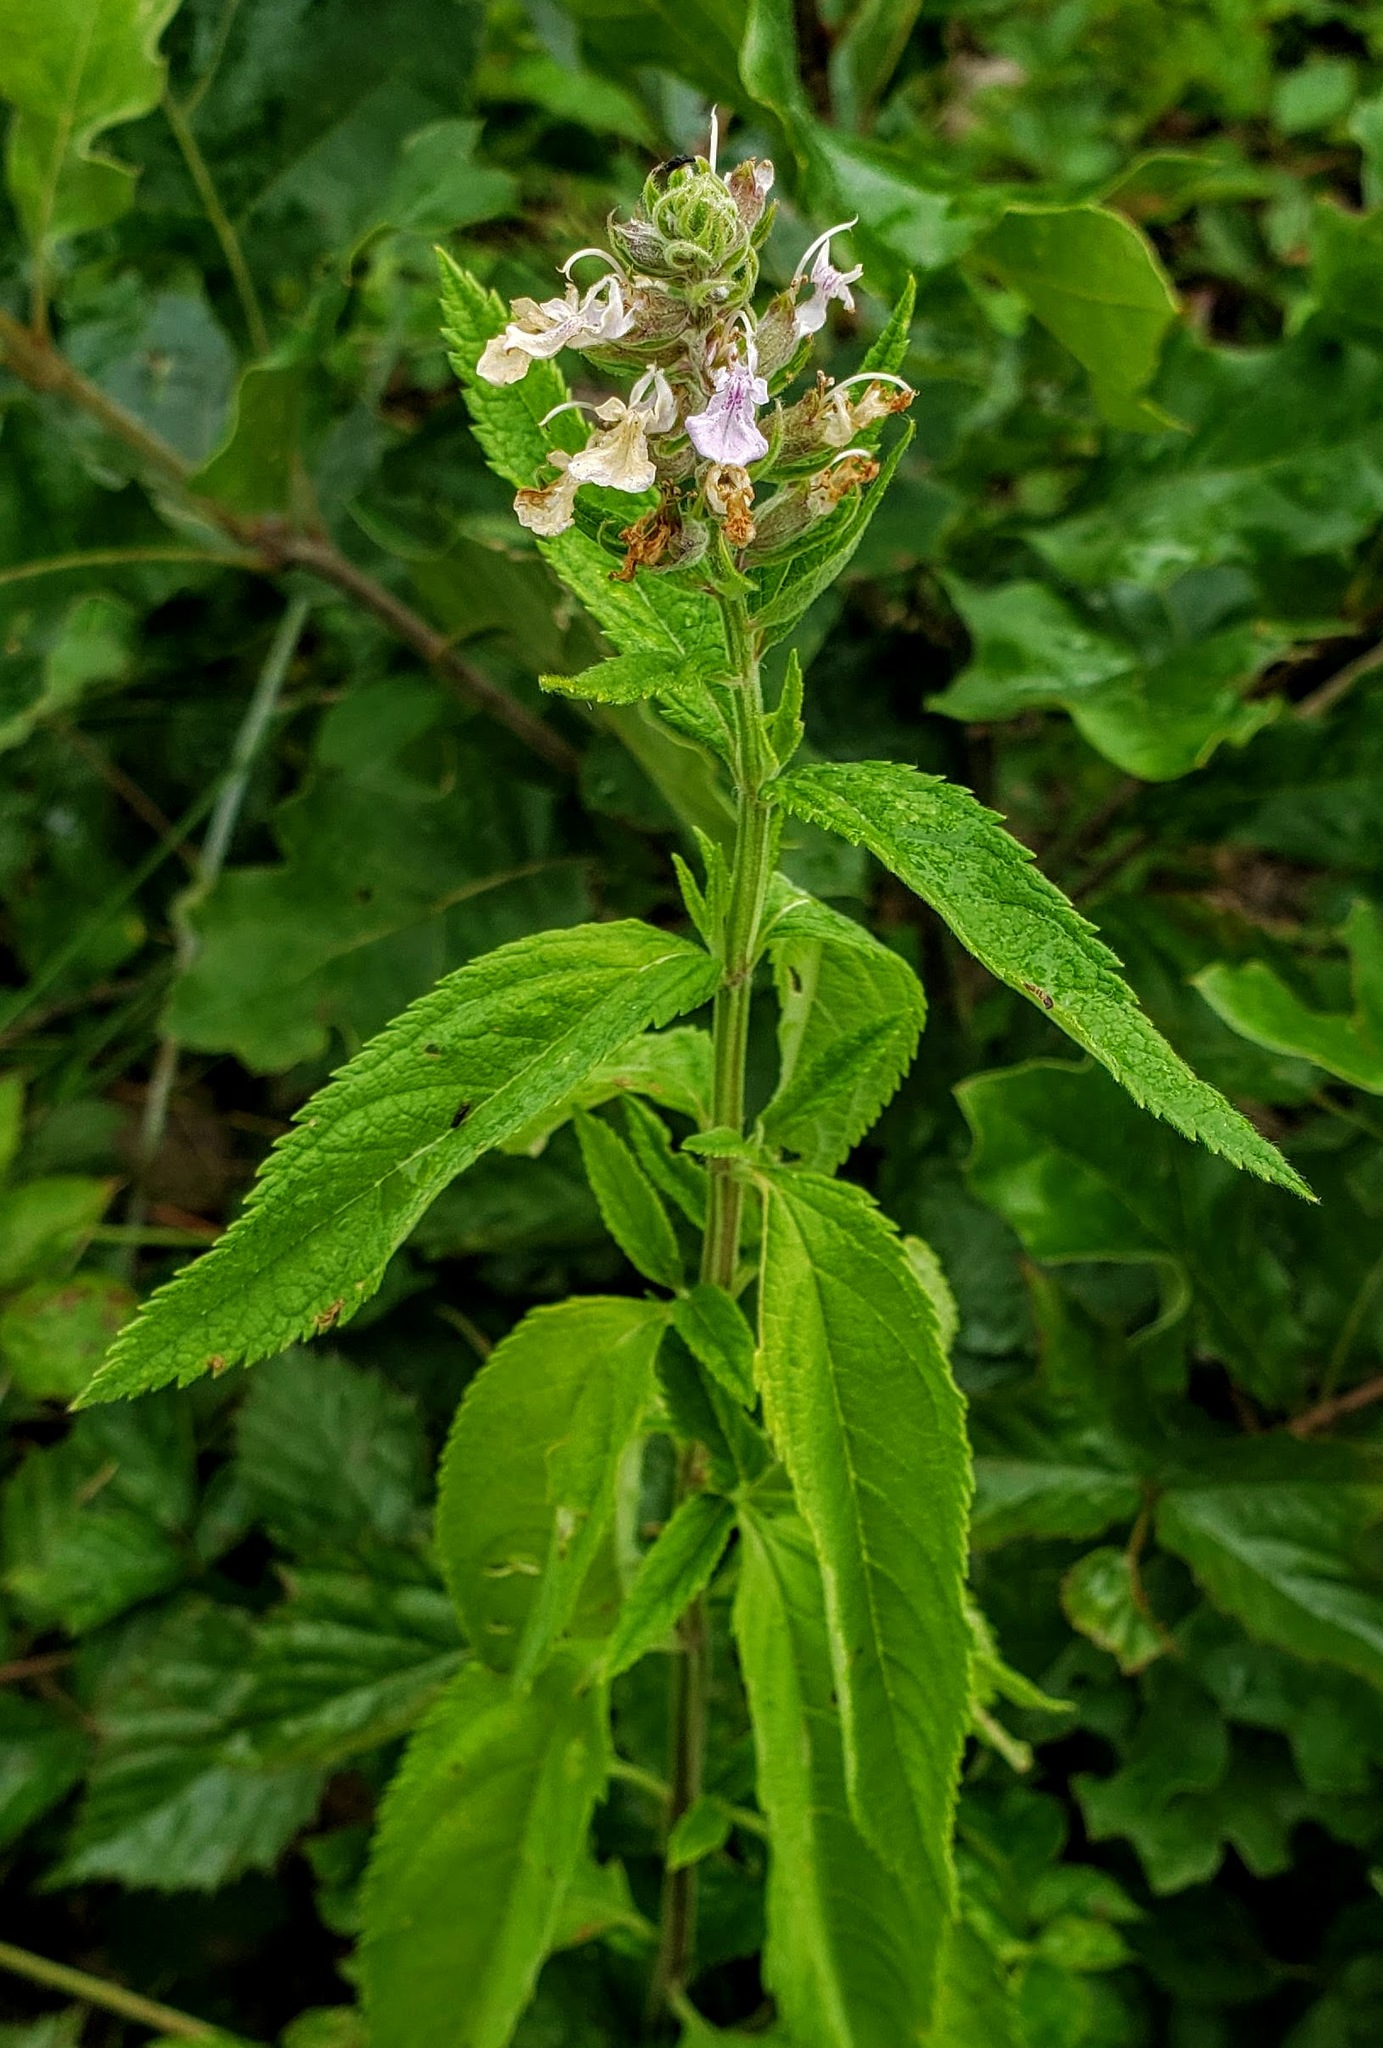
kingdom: Plantae
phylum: Tracheophyta
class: Magnoliopsida
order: Lamiales
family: Lamiaceae
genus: Teucrium
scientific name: Teucrium canadense
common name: American germander
